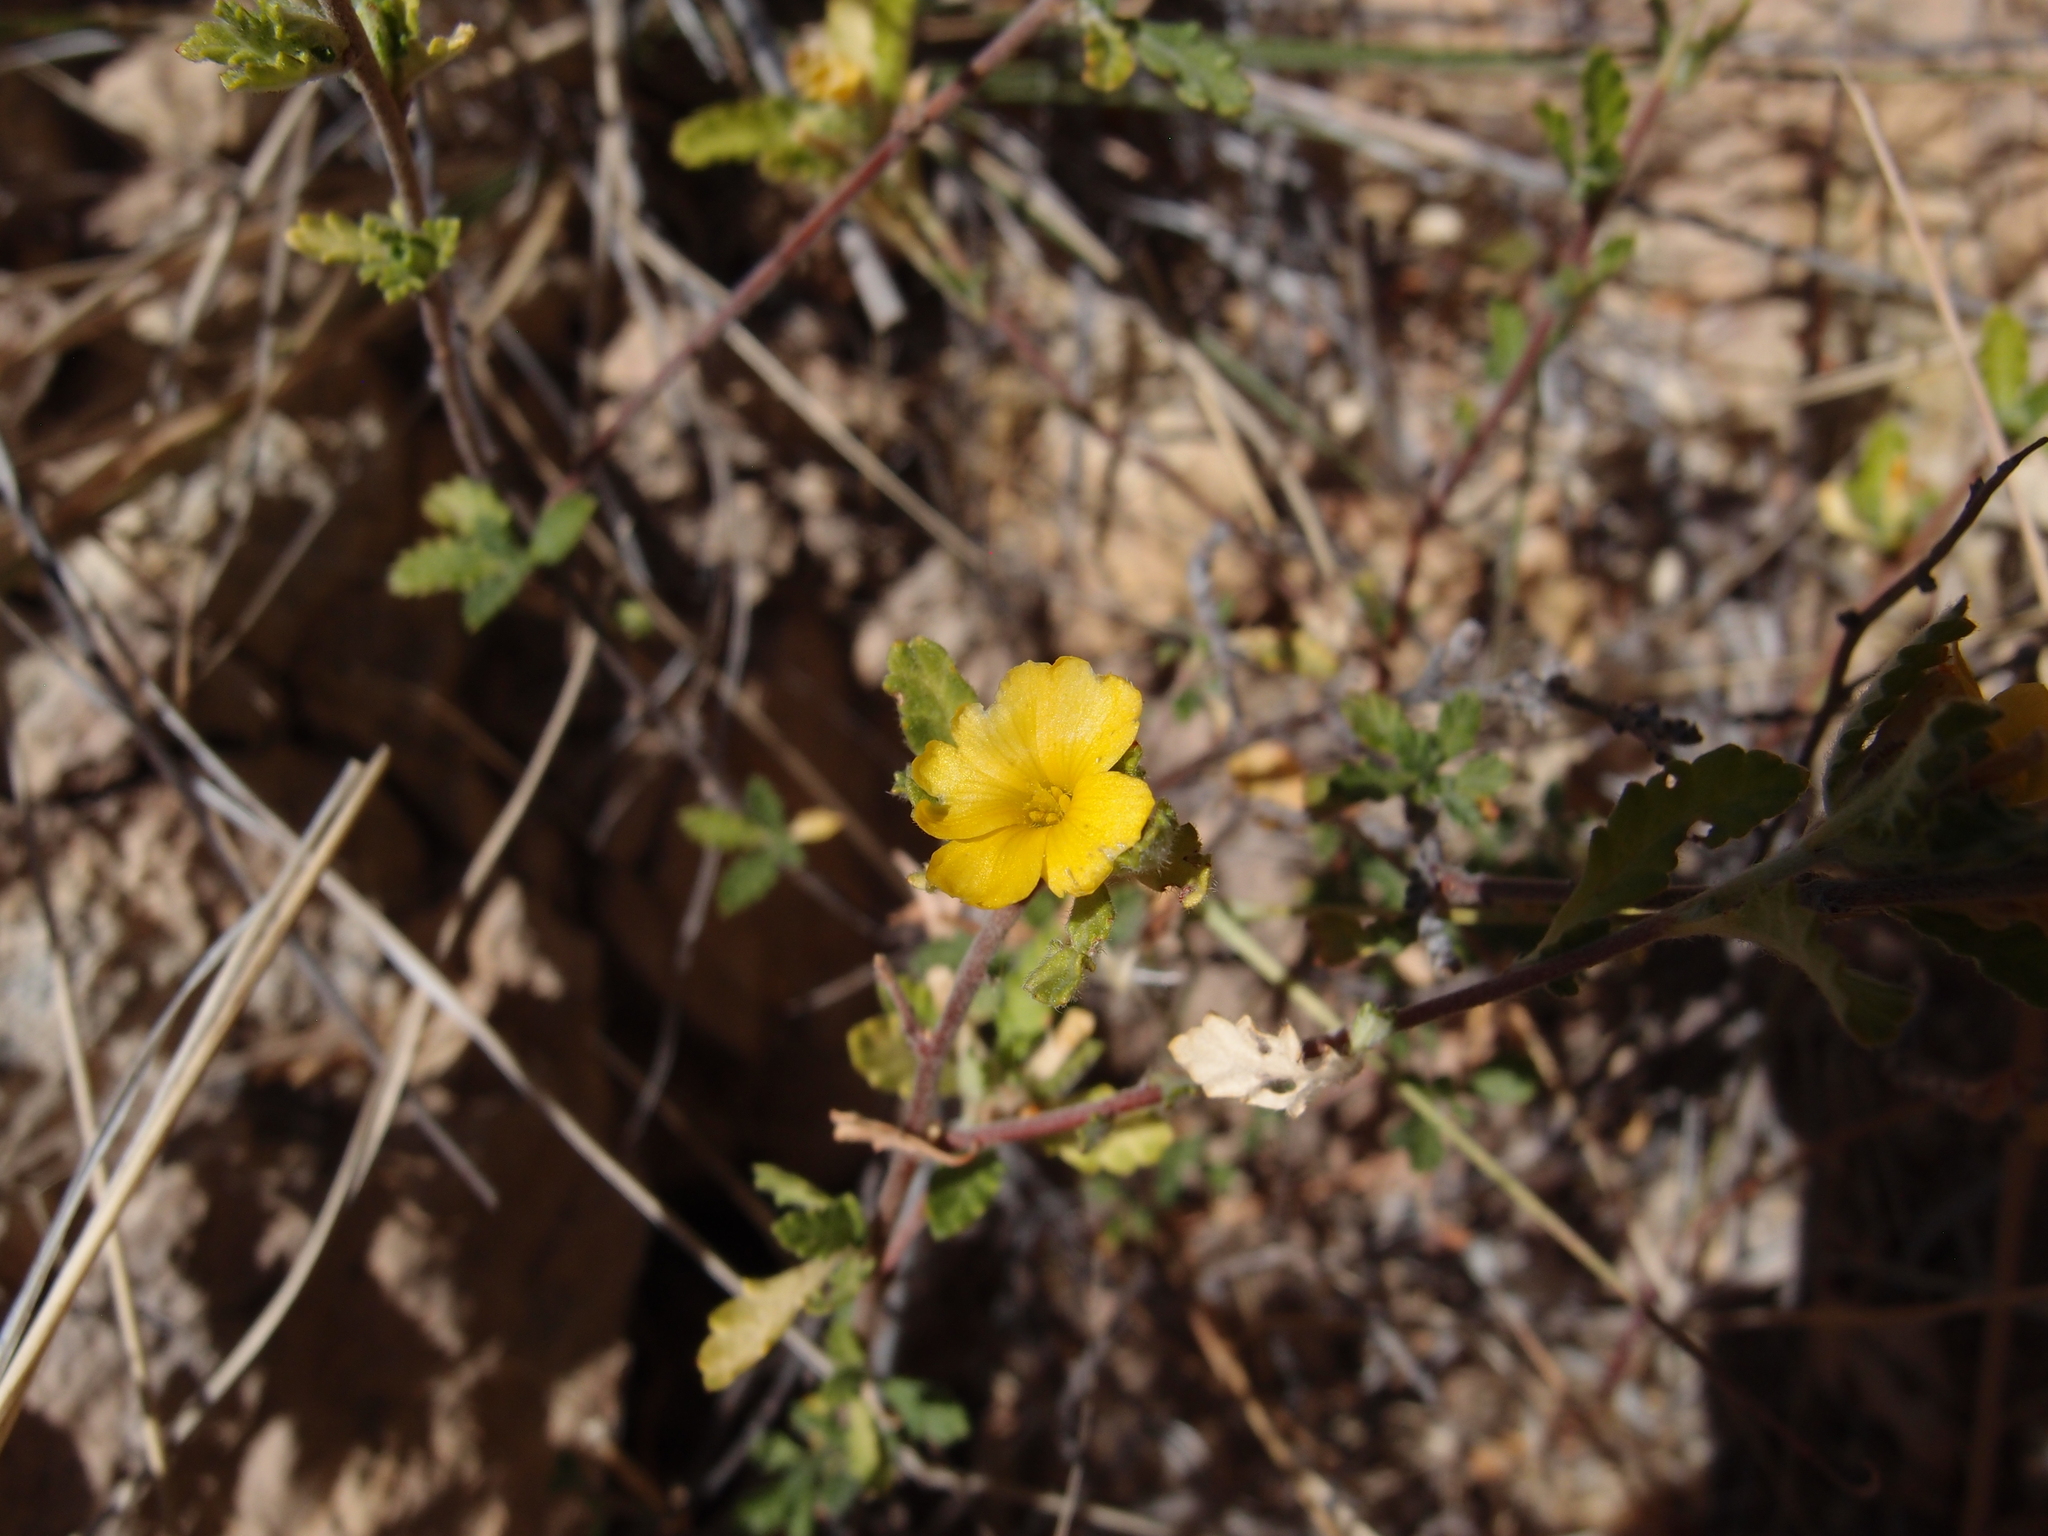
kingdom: Plantae
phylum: Tracheophyta
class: Magnoliopsida
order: Malpighiales
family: Turneraceae
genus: Turnera
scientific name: Turnera diffusa
